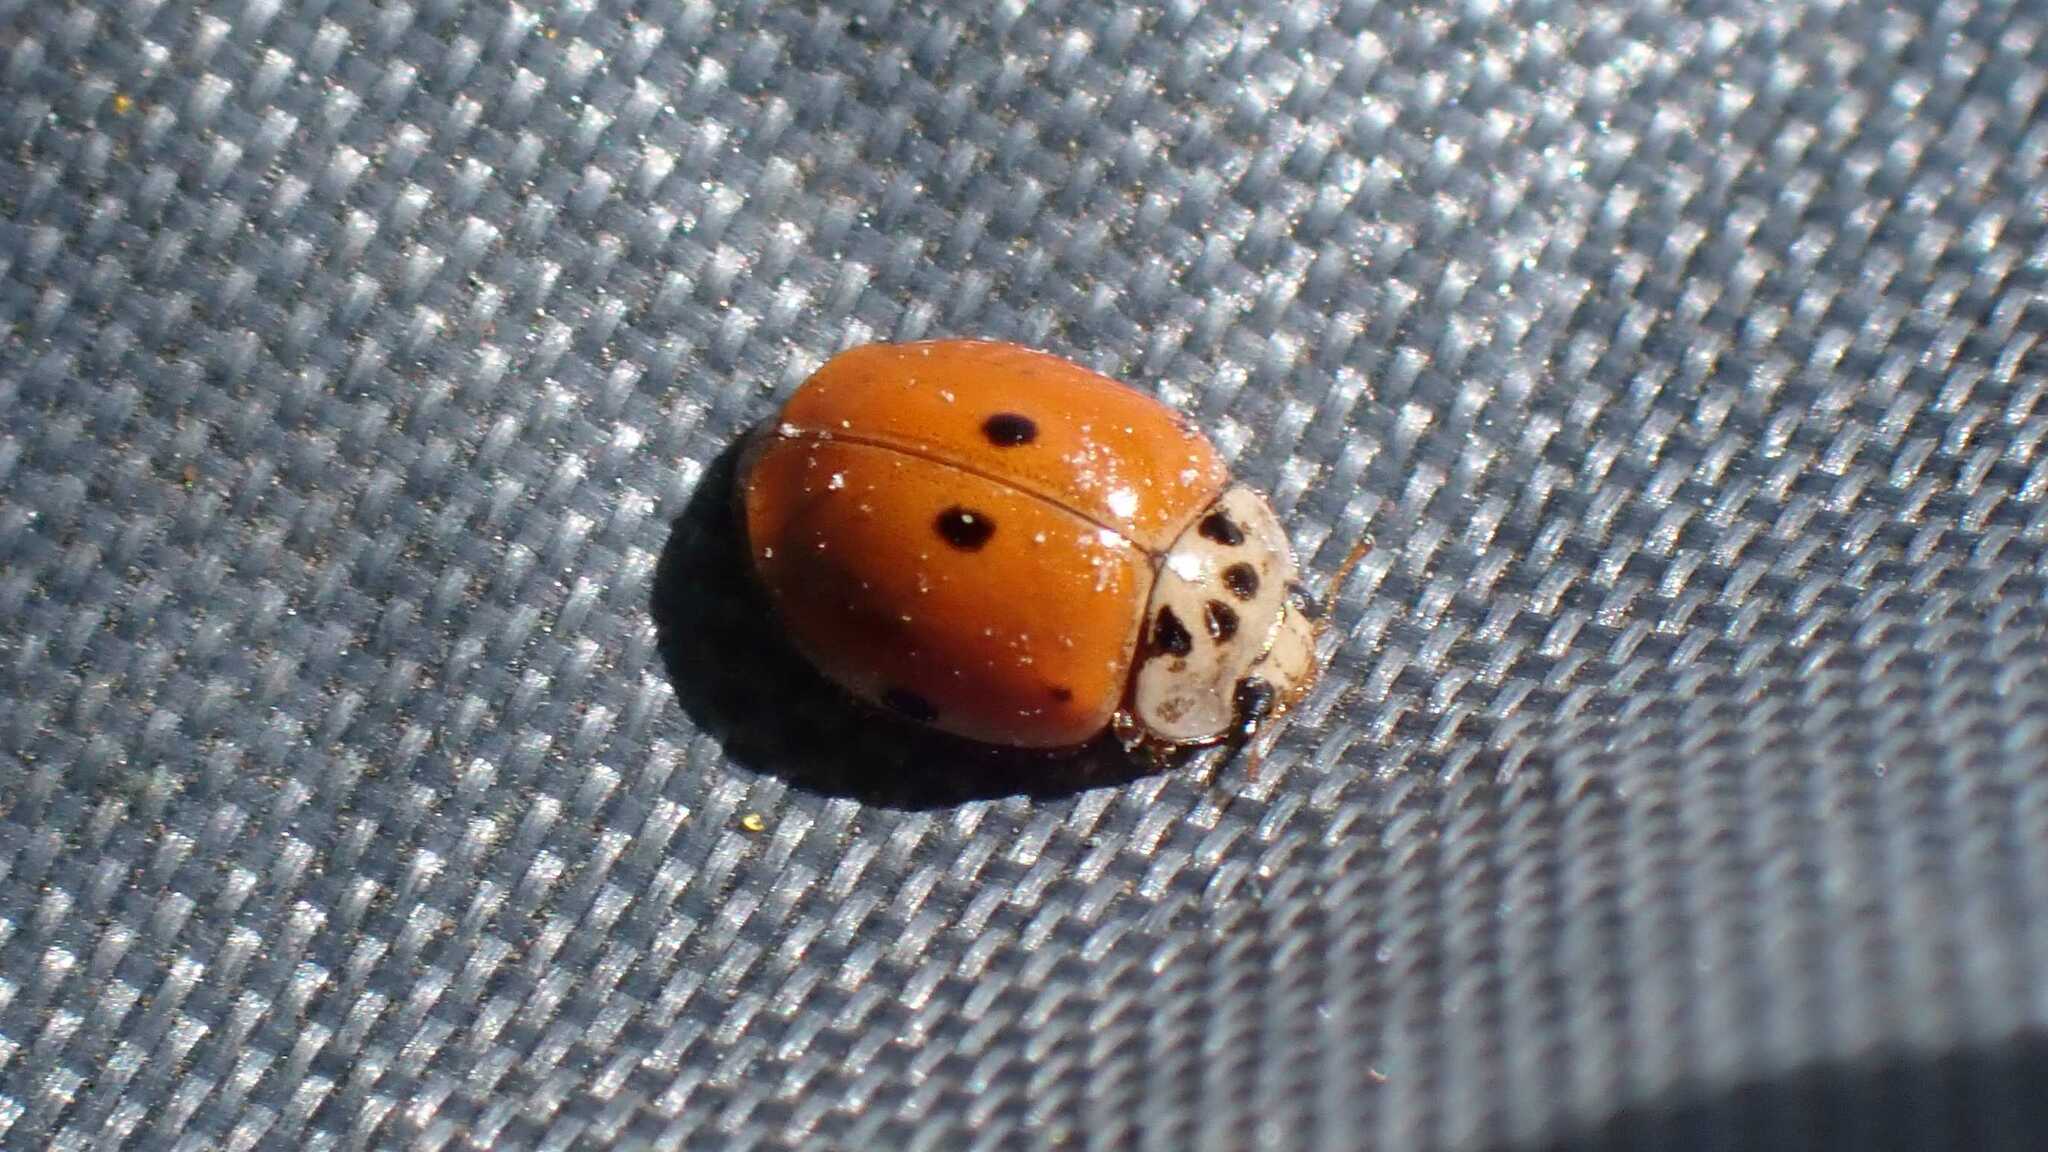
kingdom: Animalia
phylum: Arthropoda
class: Insecta
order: Coleoptera
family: Coccinellidae
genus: Adalia
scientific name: Adalia decempunctata
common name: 10-spot ladybird
